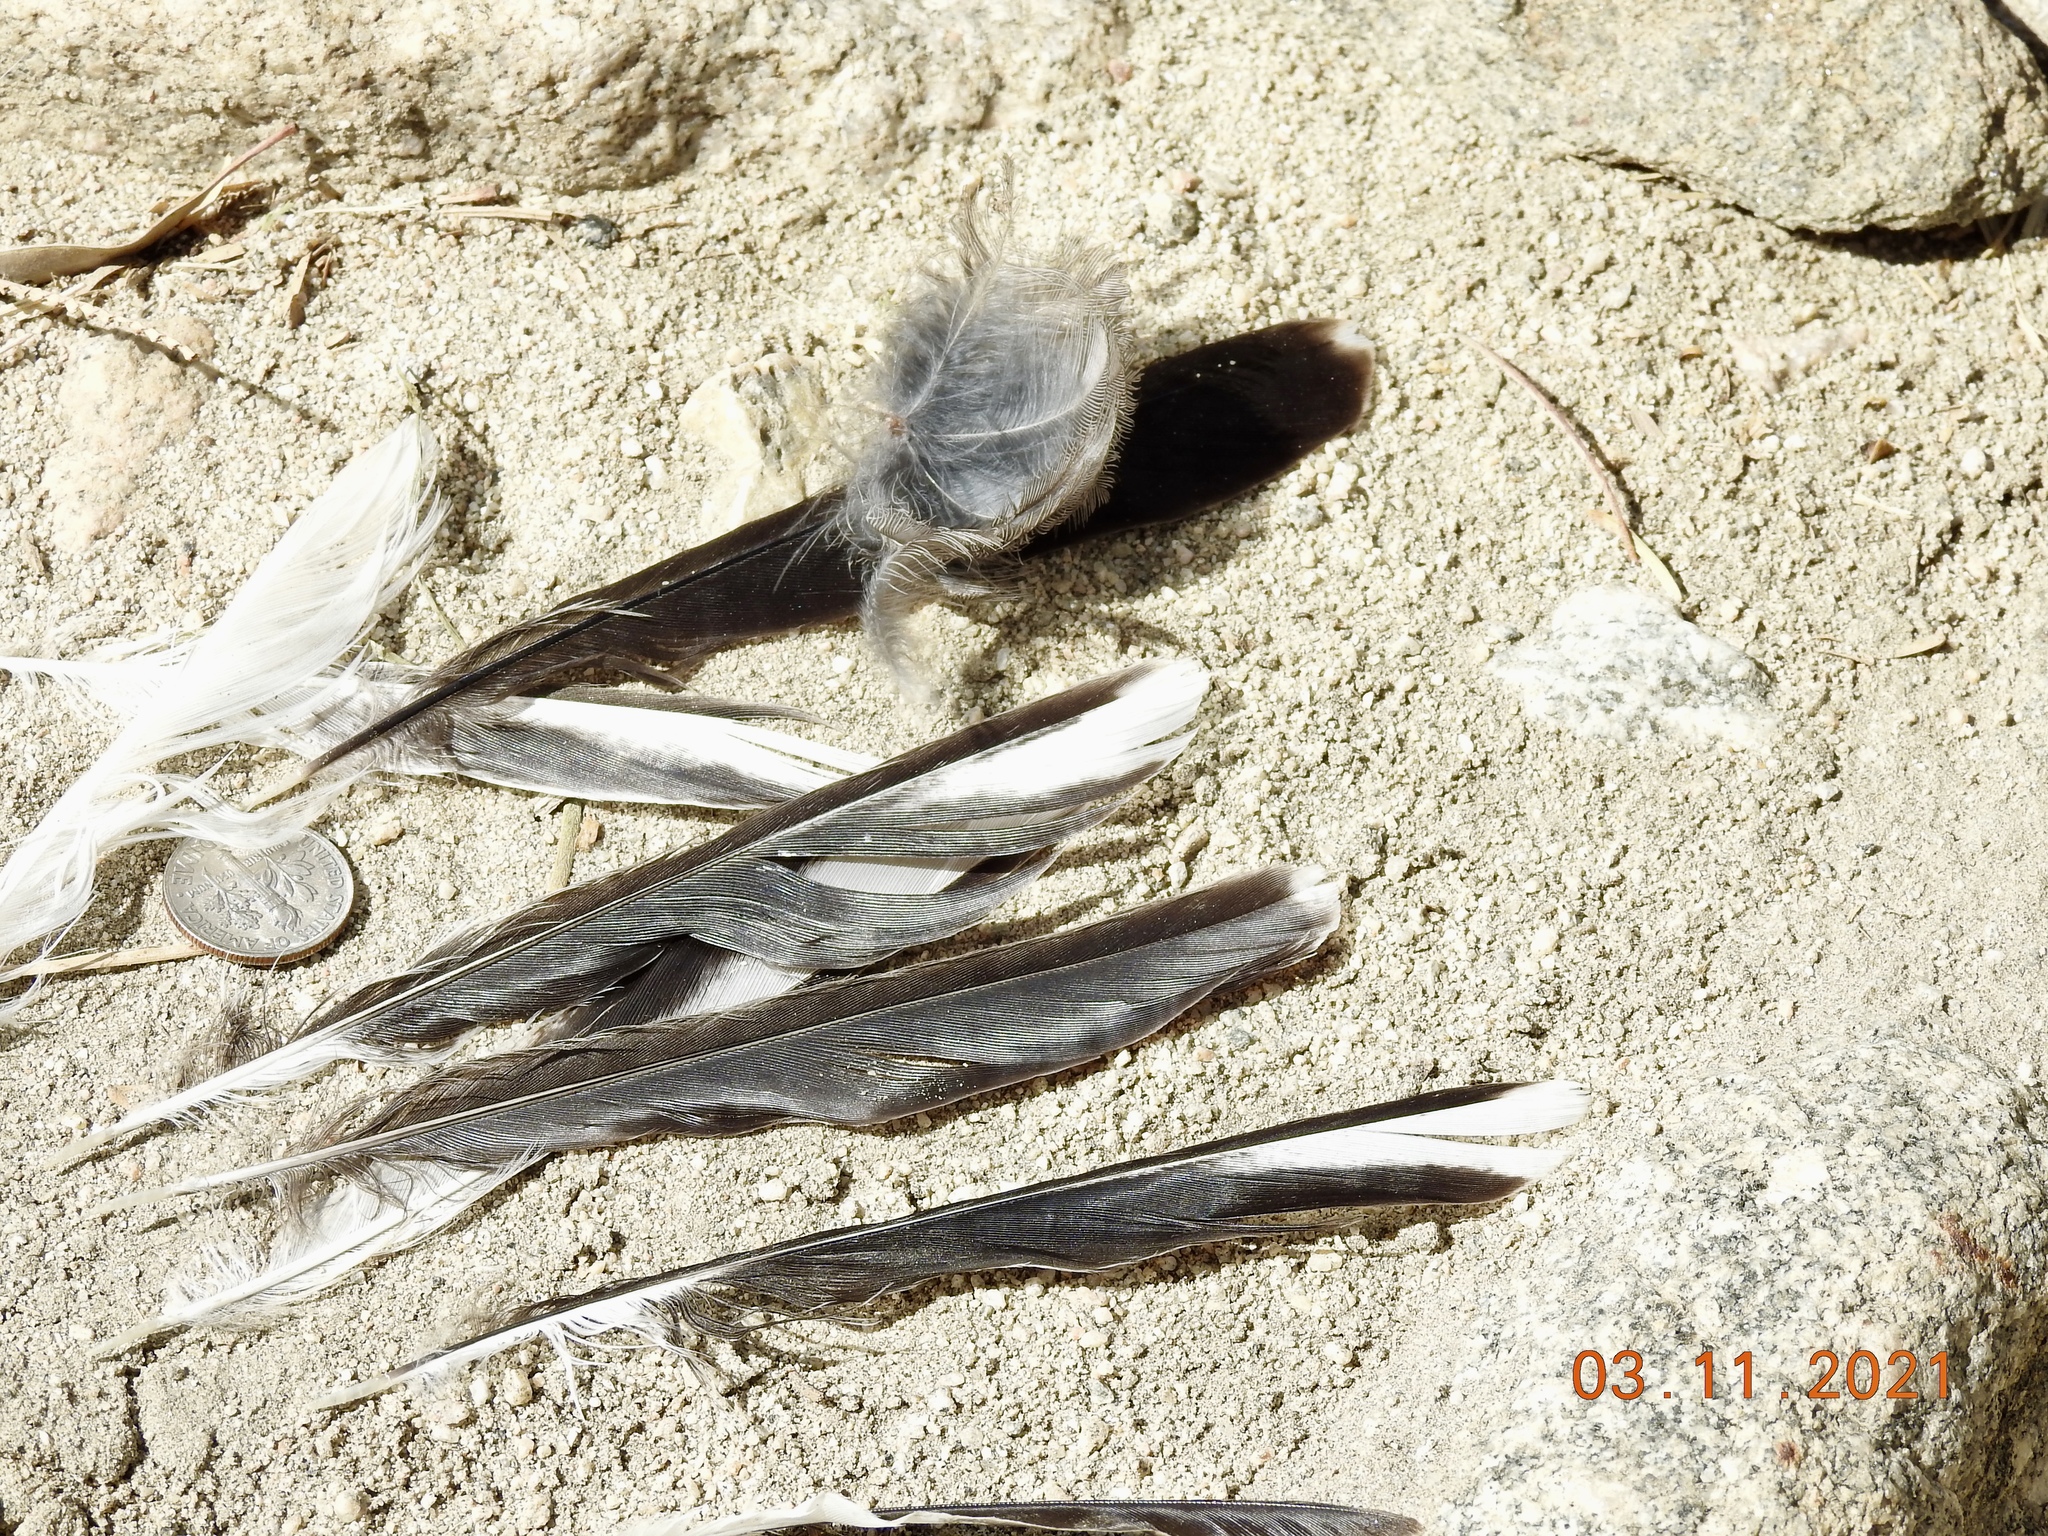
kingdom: Animalia
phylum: Chordata
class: Aves
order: Passeriformes
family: Mimidae
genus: Mimus
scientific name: Mimus polyglottos
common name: Northern mockingbird
